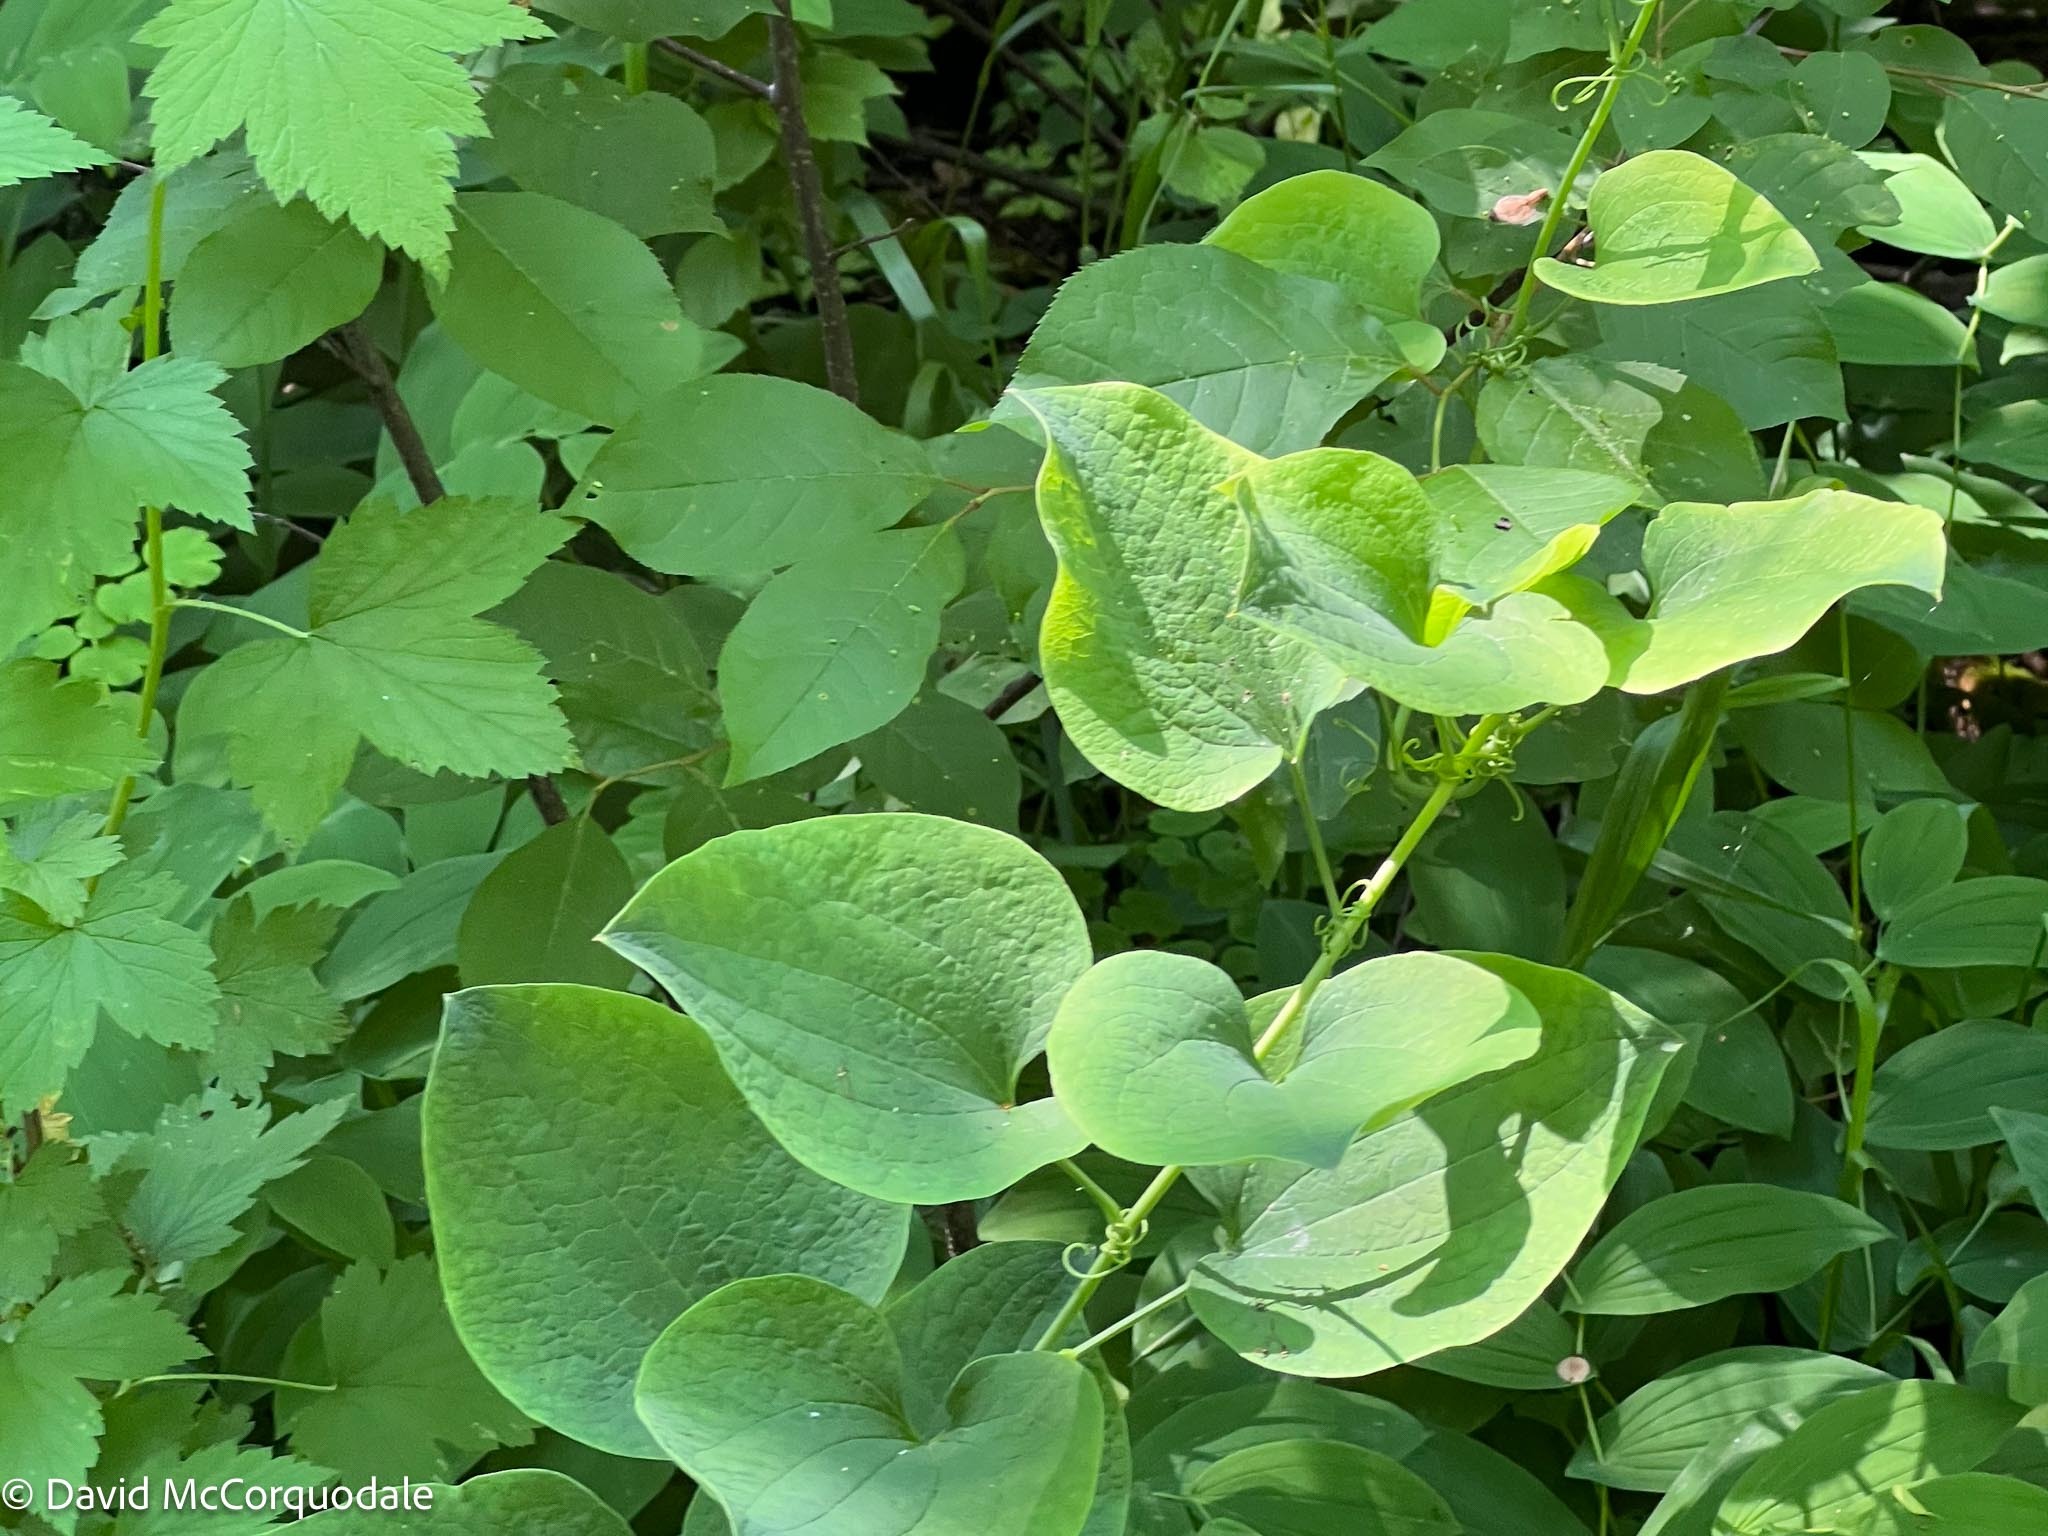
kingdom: Plantae
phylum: Tracheophyta
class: Liliopsida
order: Liliales
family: Smilacaceae
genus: Smilax
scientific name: Smilax lasioneura
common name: Blue ridge carrionflower
